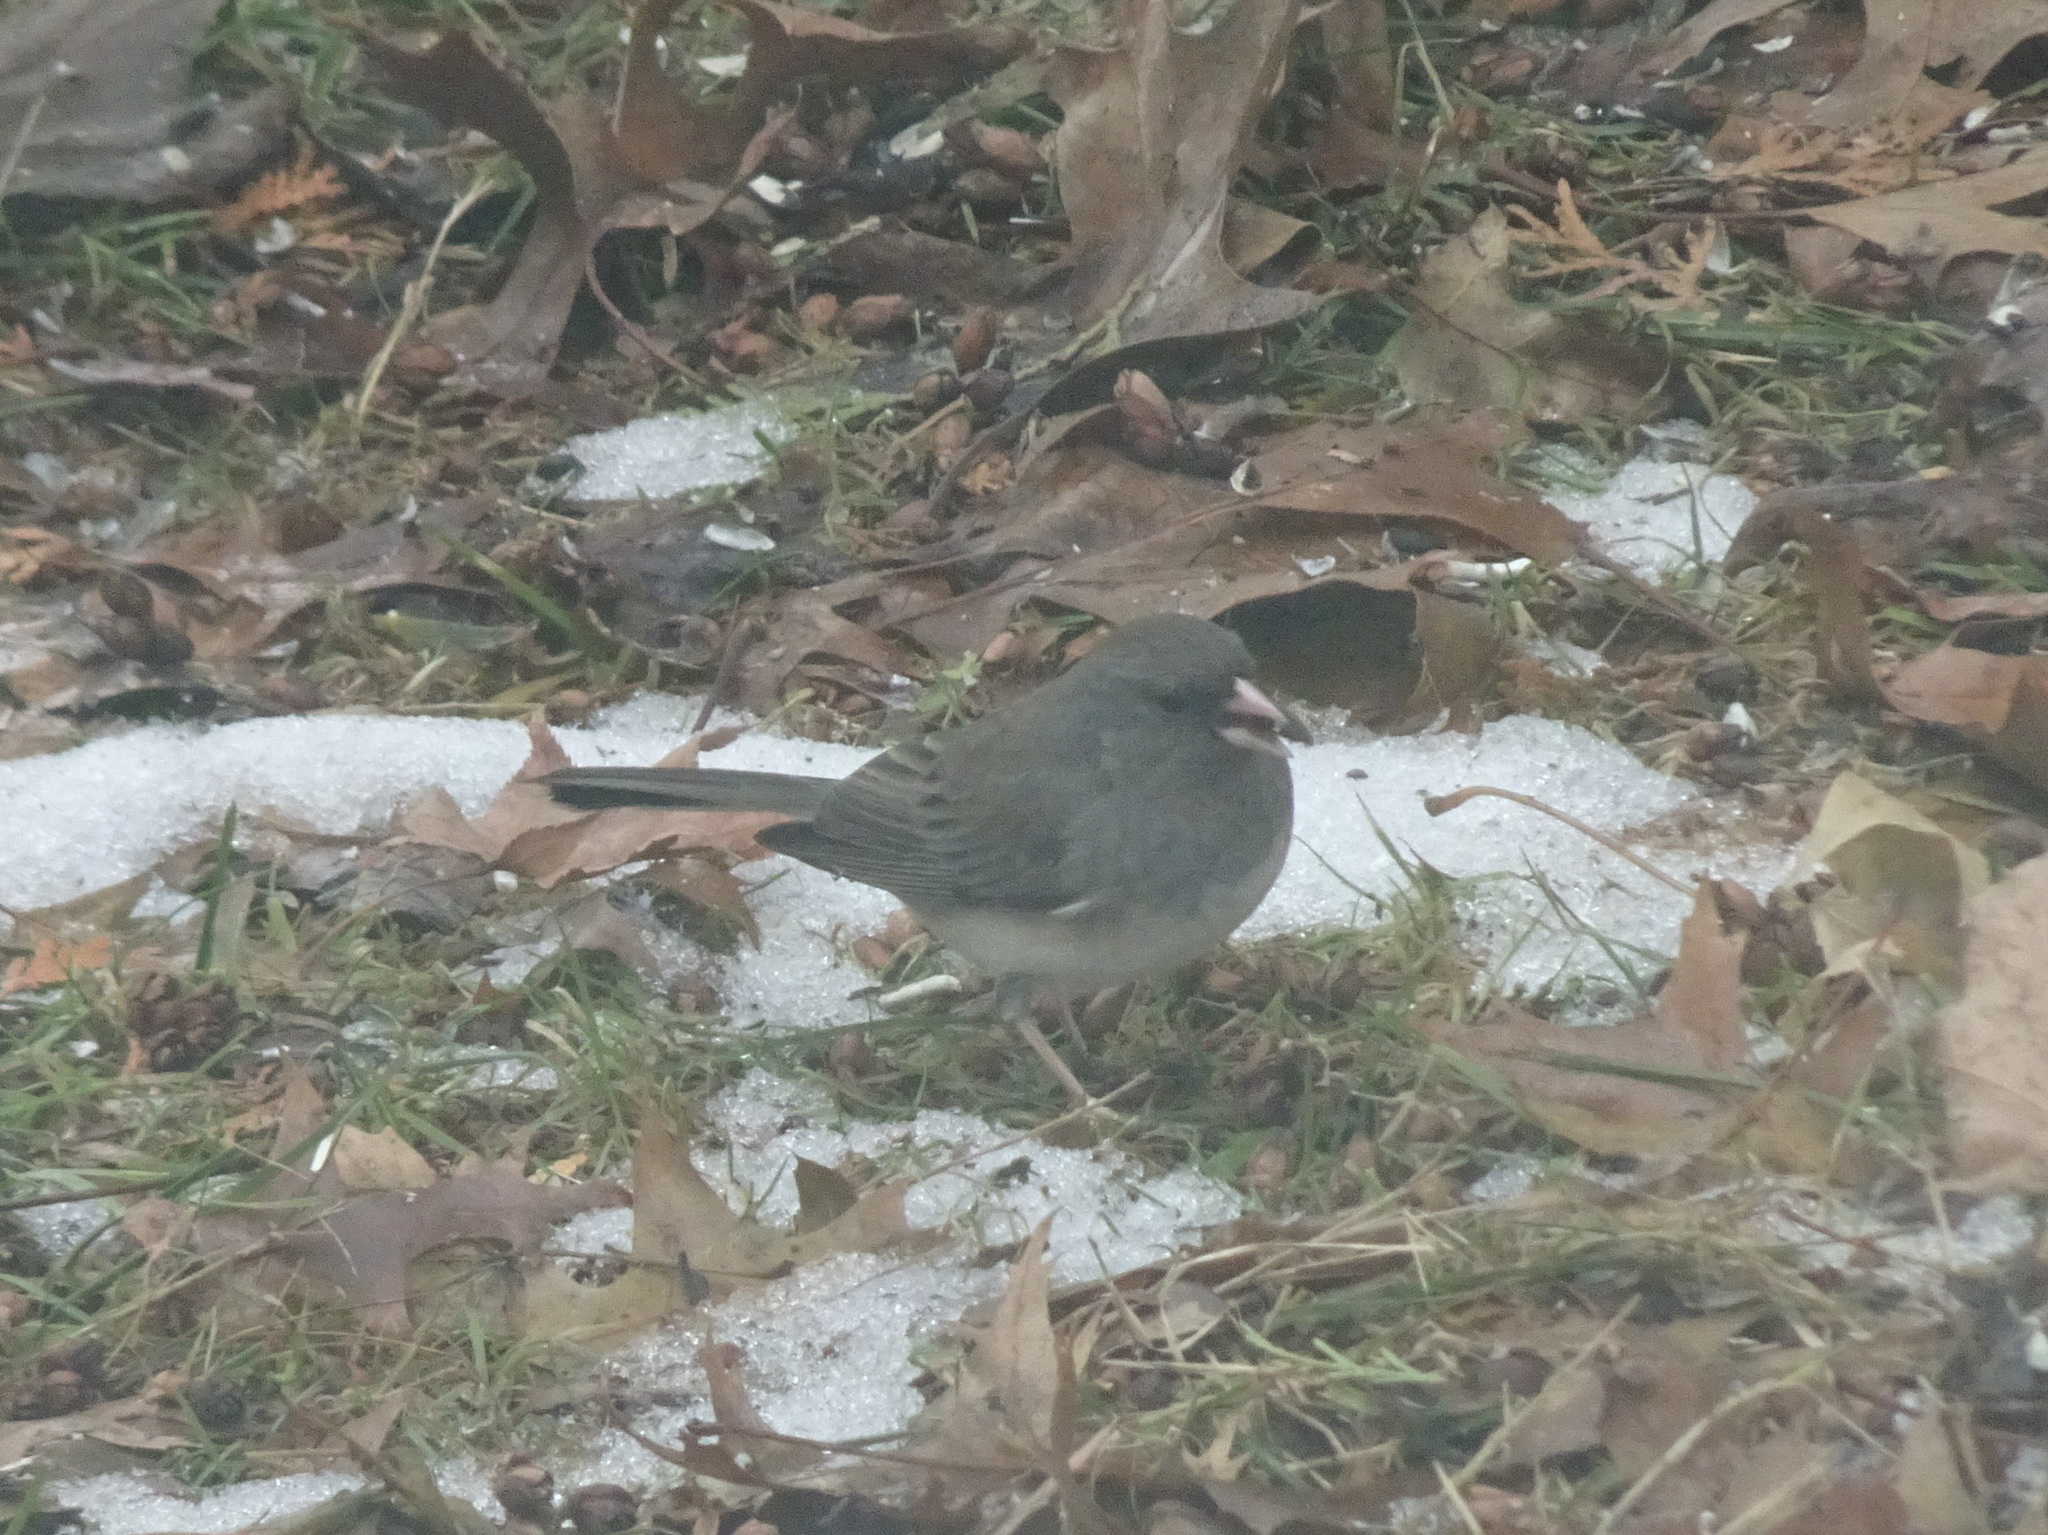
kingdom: Animalia
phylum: Chordata
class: Aves
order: Passeriformes
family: Passerellidae
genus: Junco
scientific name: Junco hyemalis
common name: Dark-eyed junco
